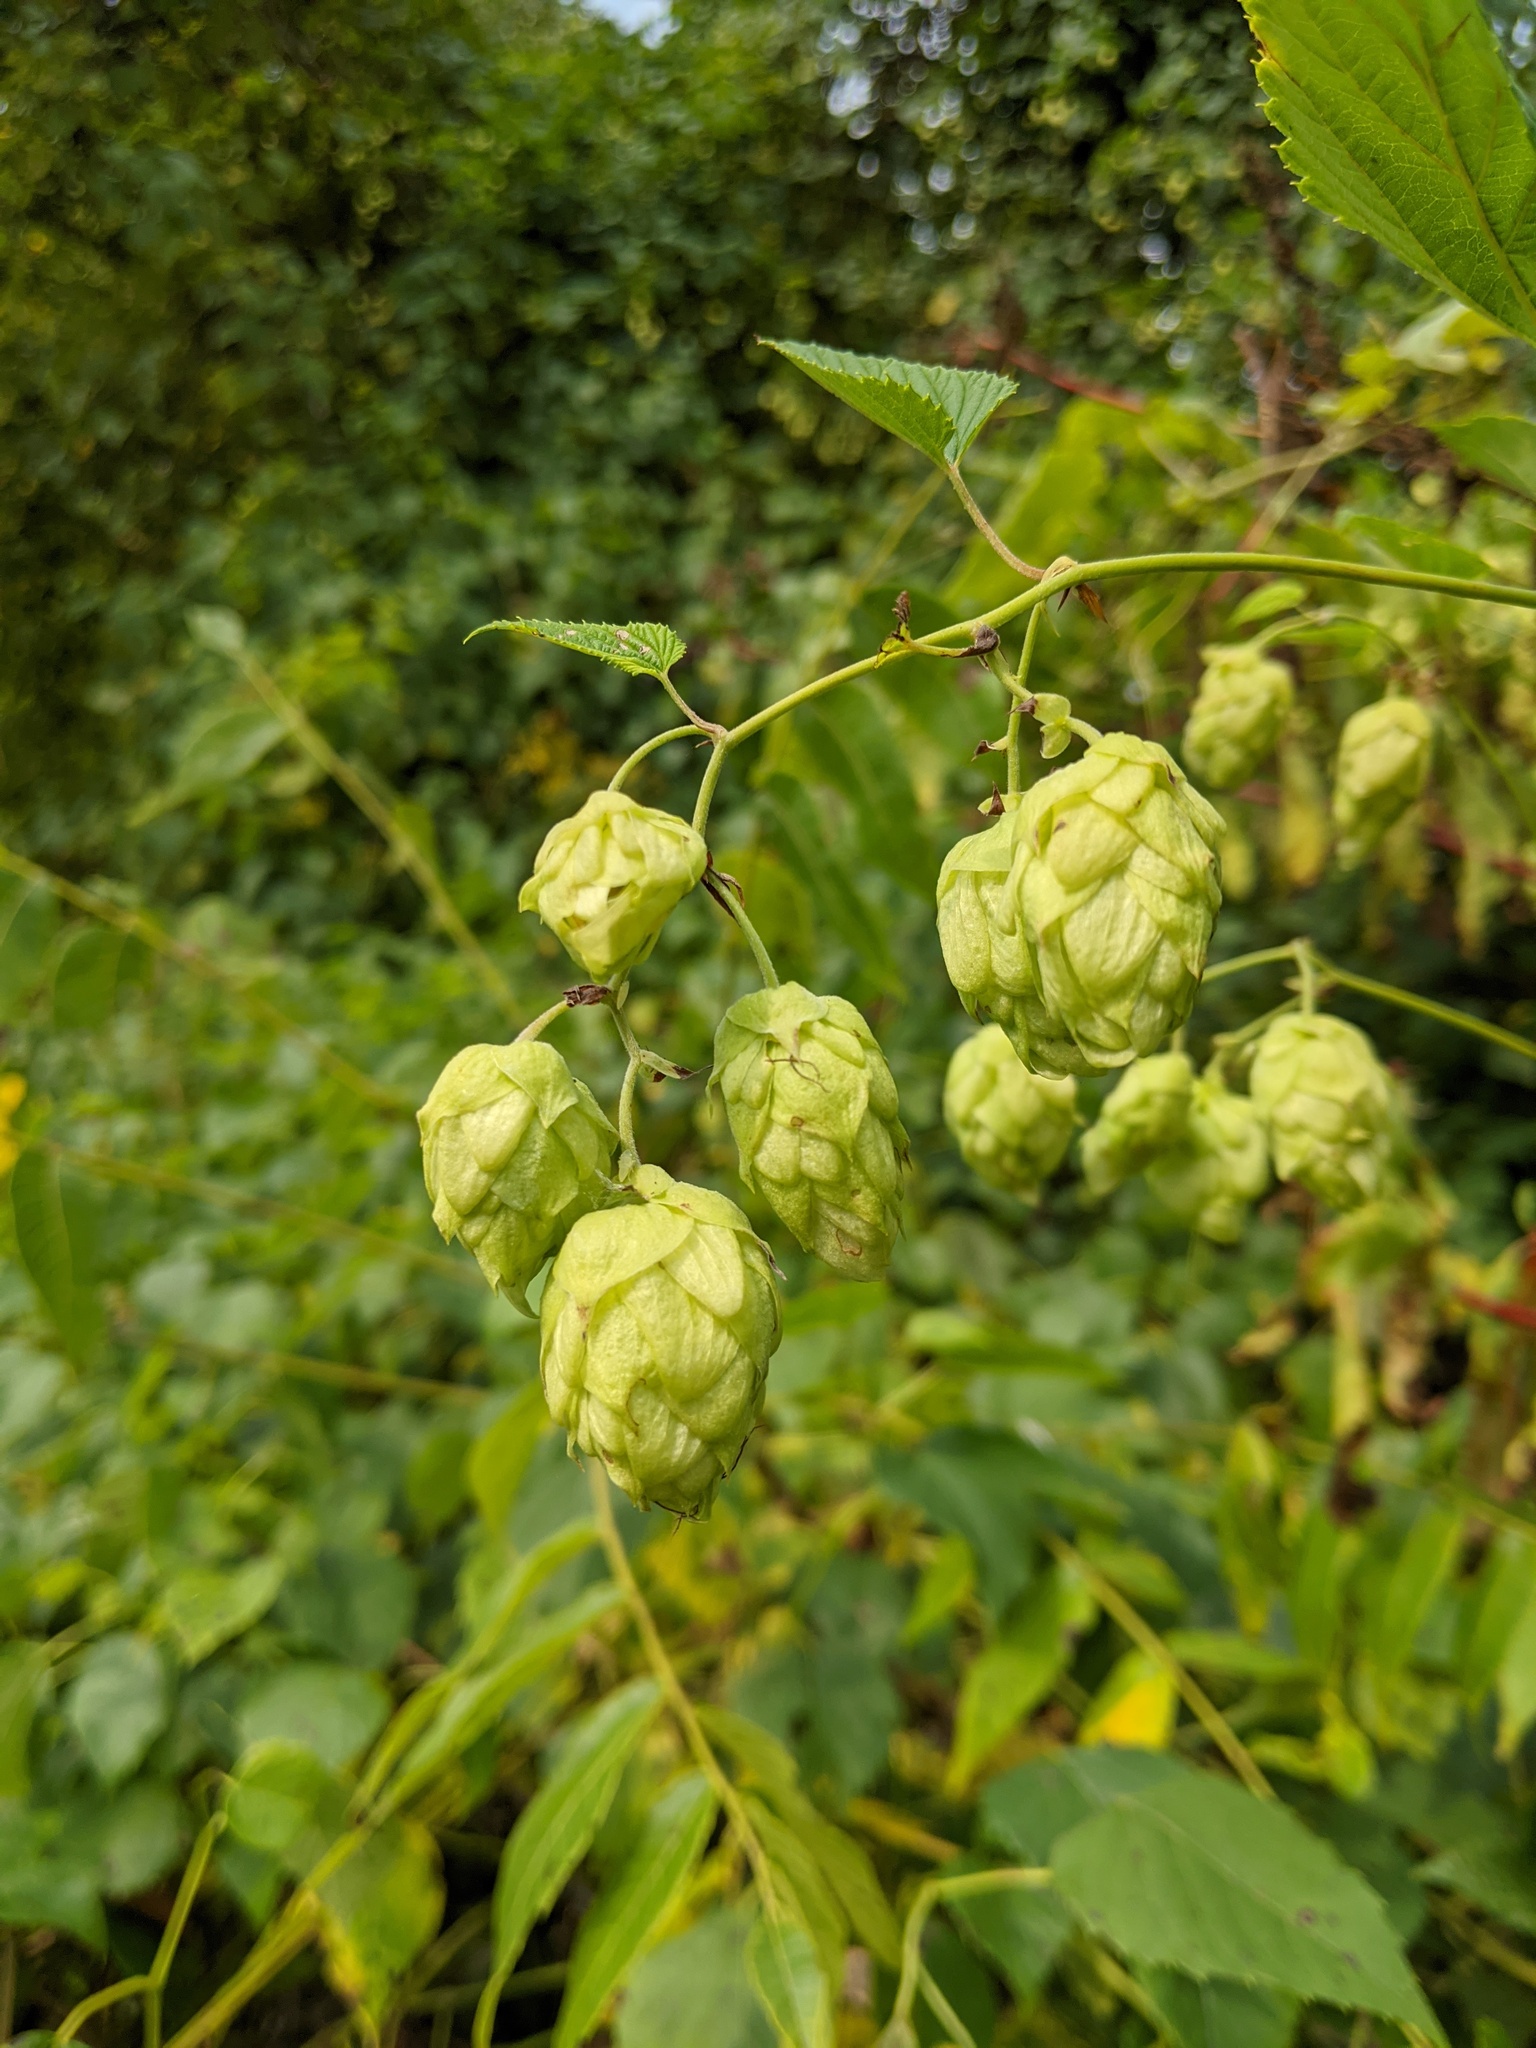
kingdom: Plantae
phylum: Tracheophyta
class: Magnoliopsida
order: Rosales
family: Cannabaceae
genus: Humulus
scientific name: Humulus lupulus
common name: Hop
